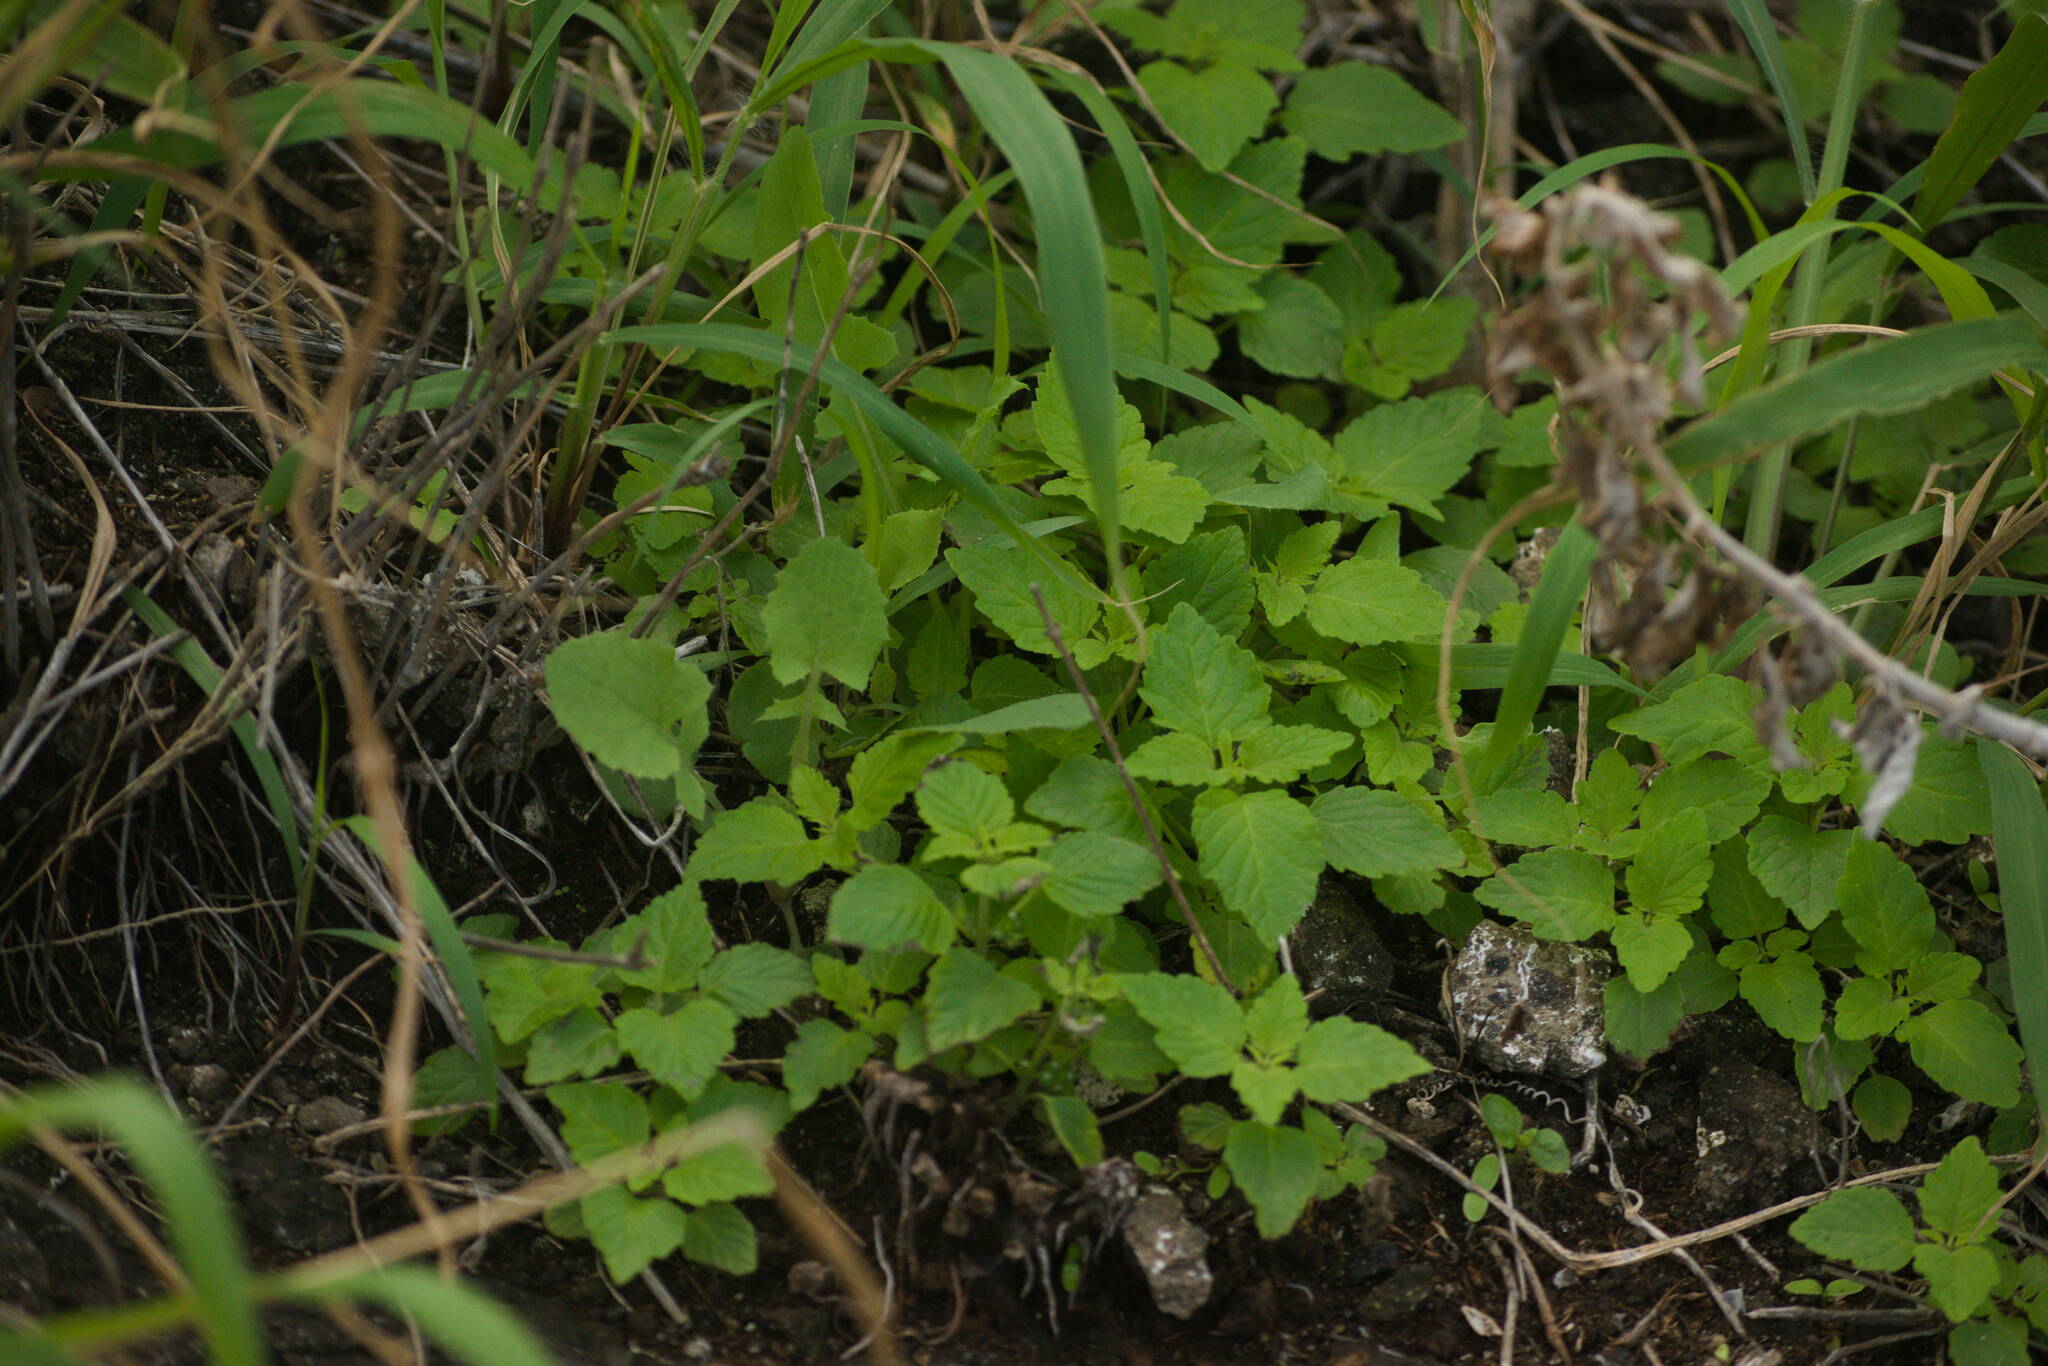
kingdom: Plantae
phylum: Tracheophyta
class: Magnoliopsida
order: Lamiales
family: Lamiaceae
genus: Mesosphaerum
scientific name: Mesosphaerum pectinatum
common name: Comb hyptis
